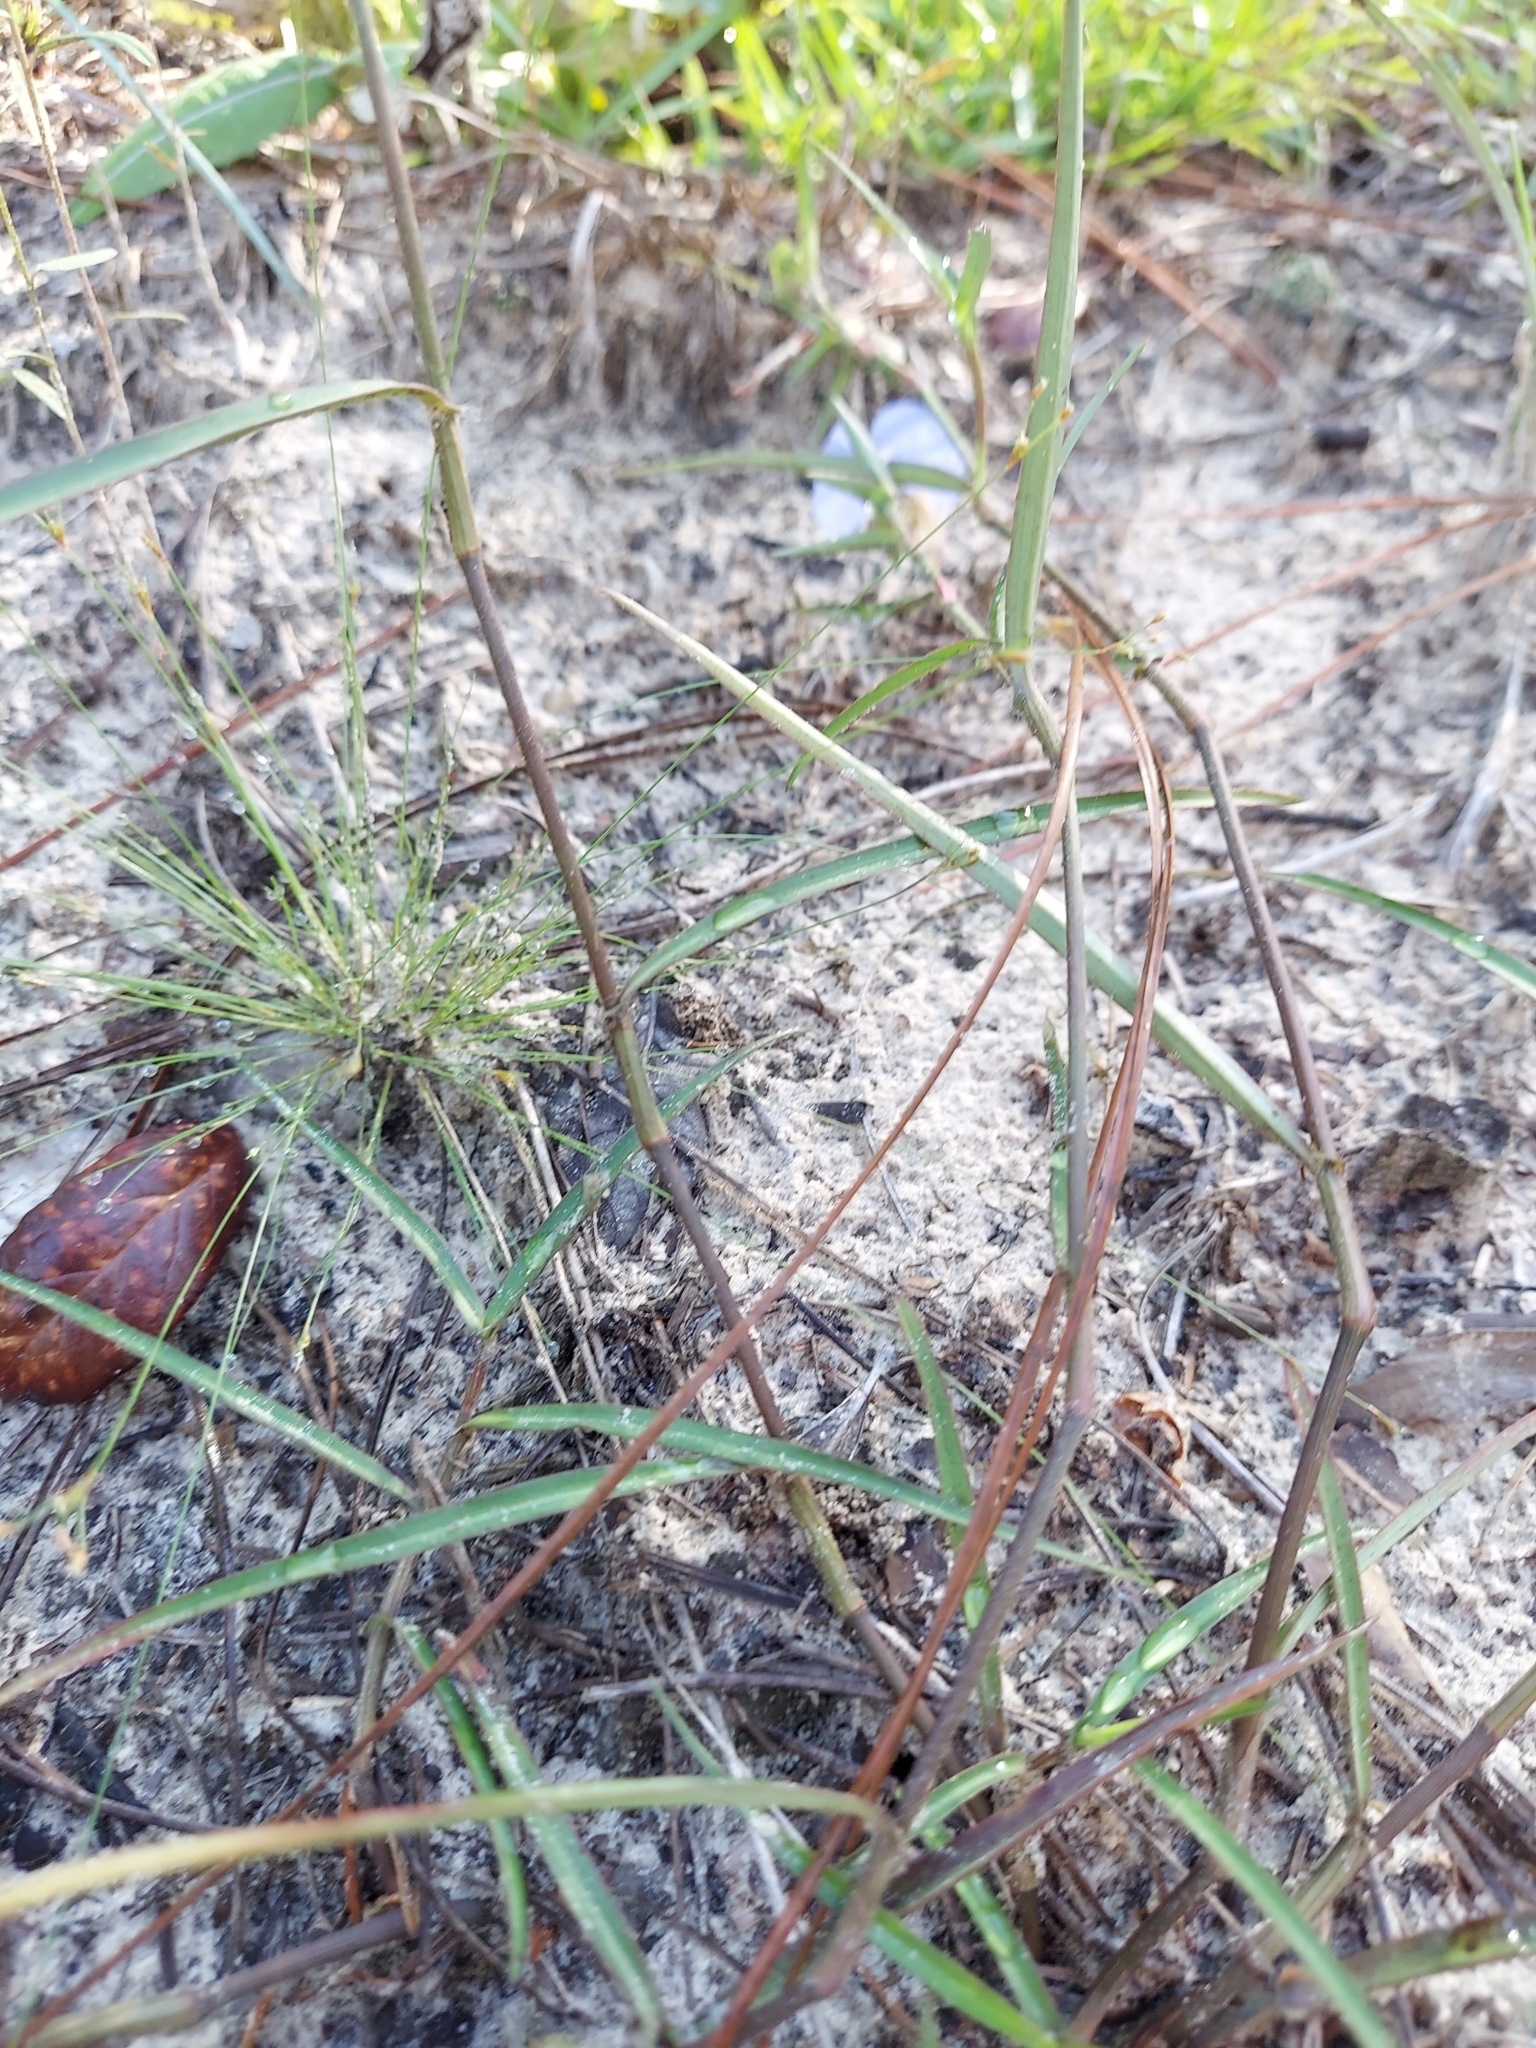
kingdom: Plantae
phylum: Tracheophyta
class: Liliopsida
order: Commelinales
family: Commelinaceae
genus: Commelina
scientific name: Commelina erecta
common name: Blousel blommetjie
